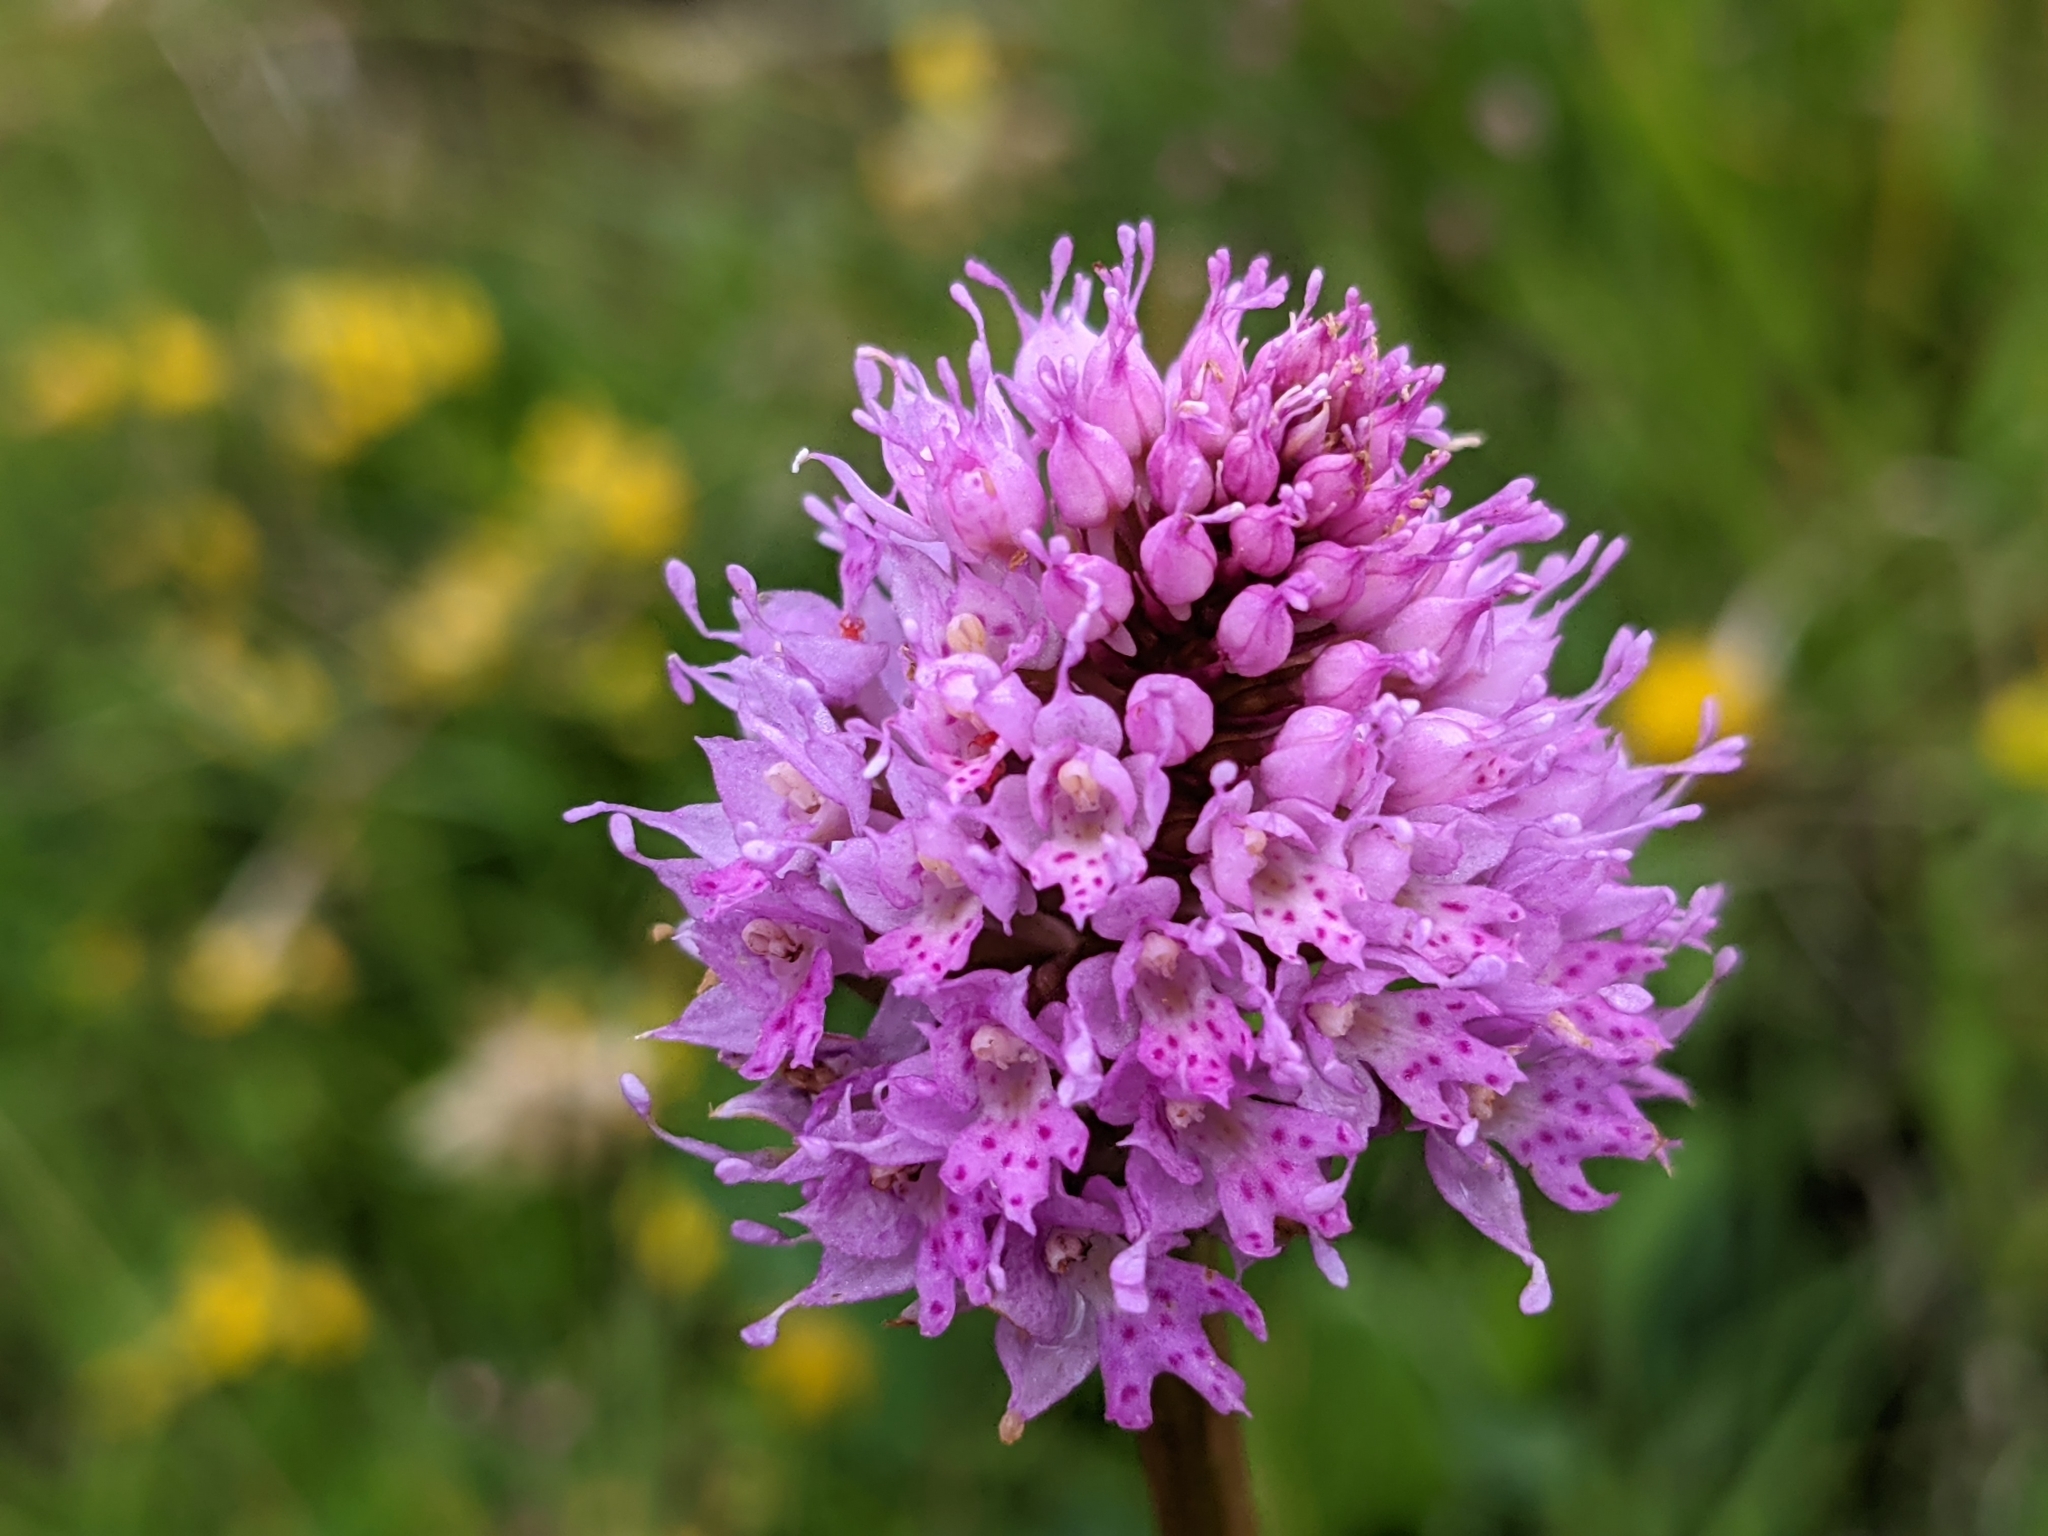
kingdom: Plantae
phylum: Tracheophyta
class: Liliopsida
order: Asparagales
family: Orchidaceae
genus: Traunsteinera
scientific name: Traunsteinera globosa
